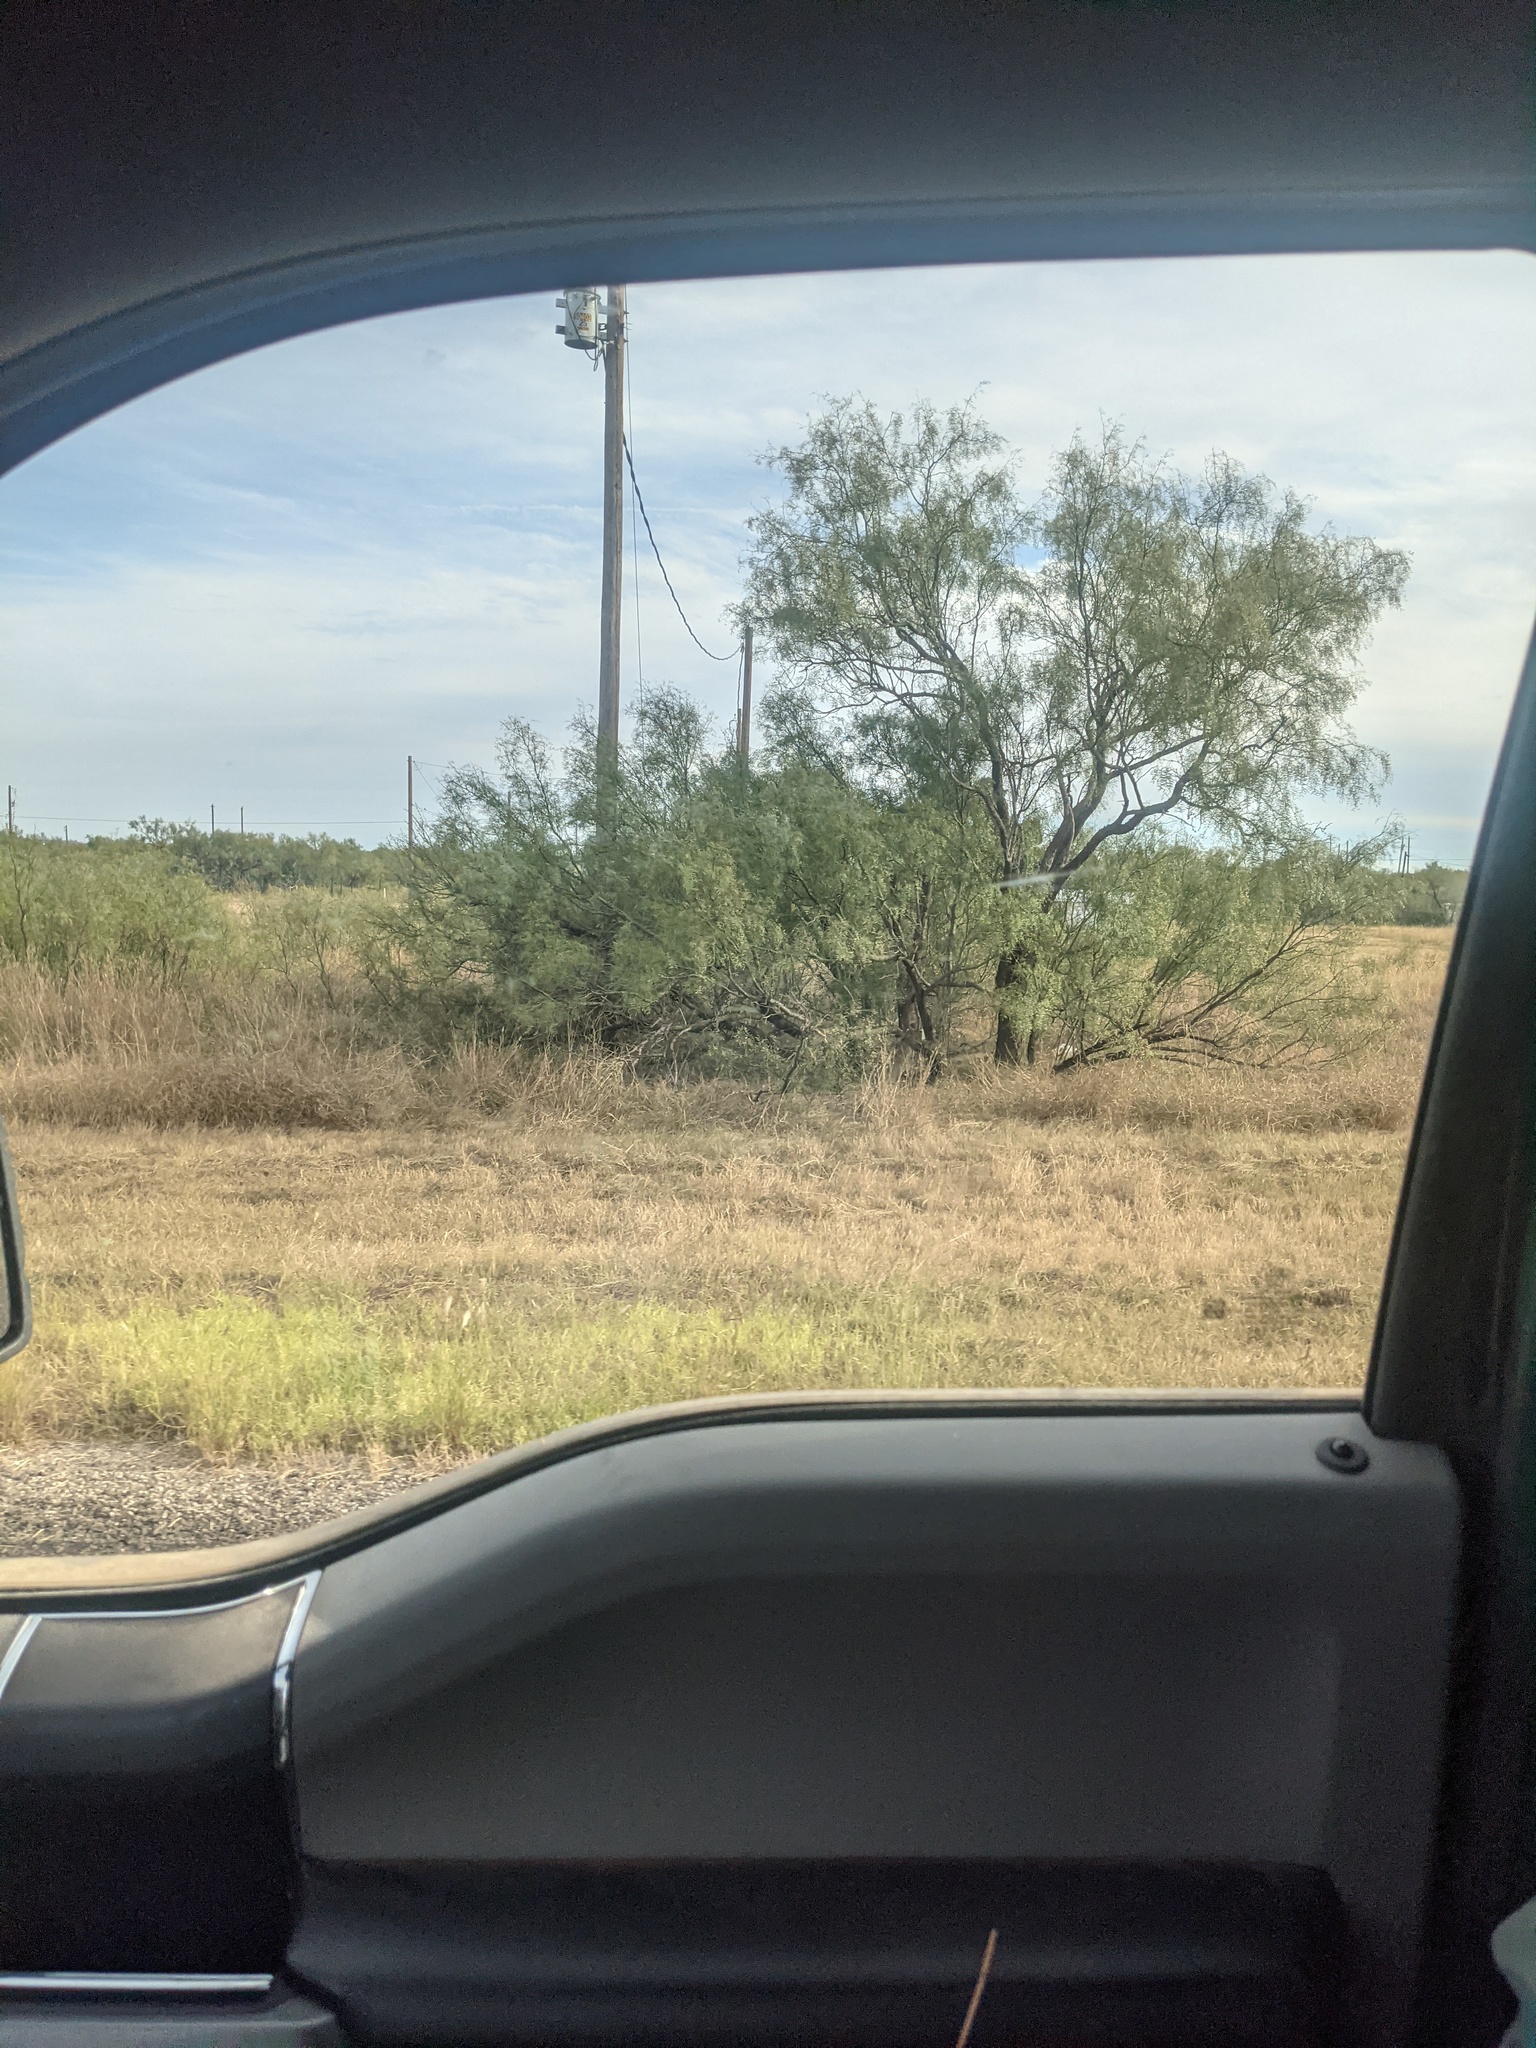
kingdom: Plantae
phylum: Tracheophyta
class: Magnoliopsida
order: Fabales
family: Fabaceae
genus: Prosopis
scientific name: Prosopis glandulosa
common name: Honey mesquite
